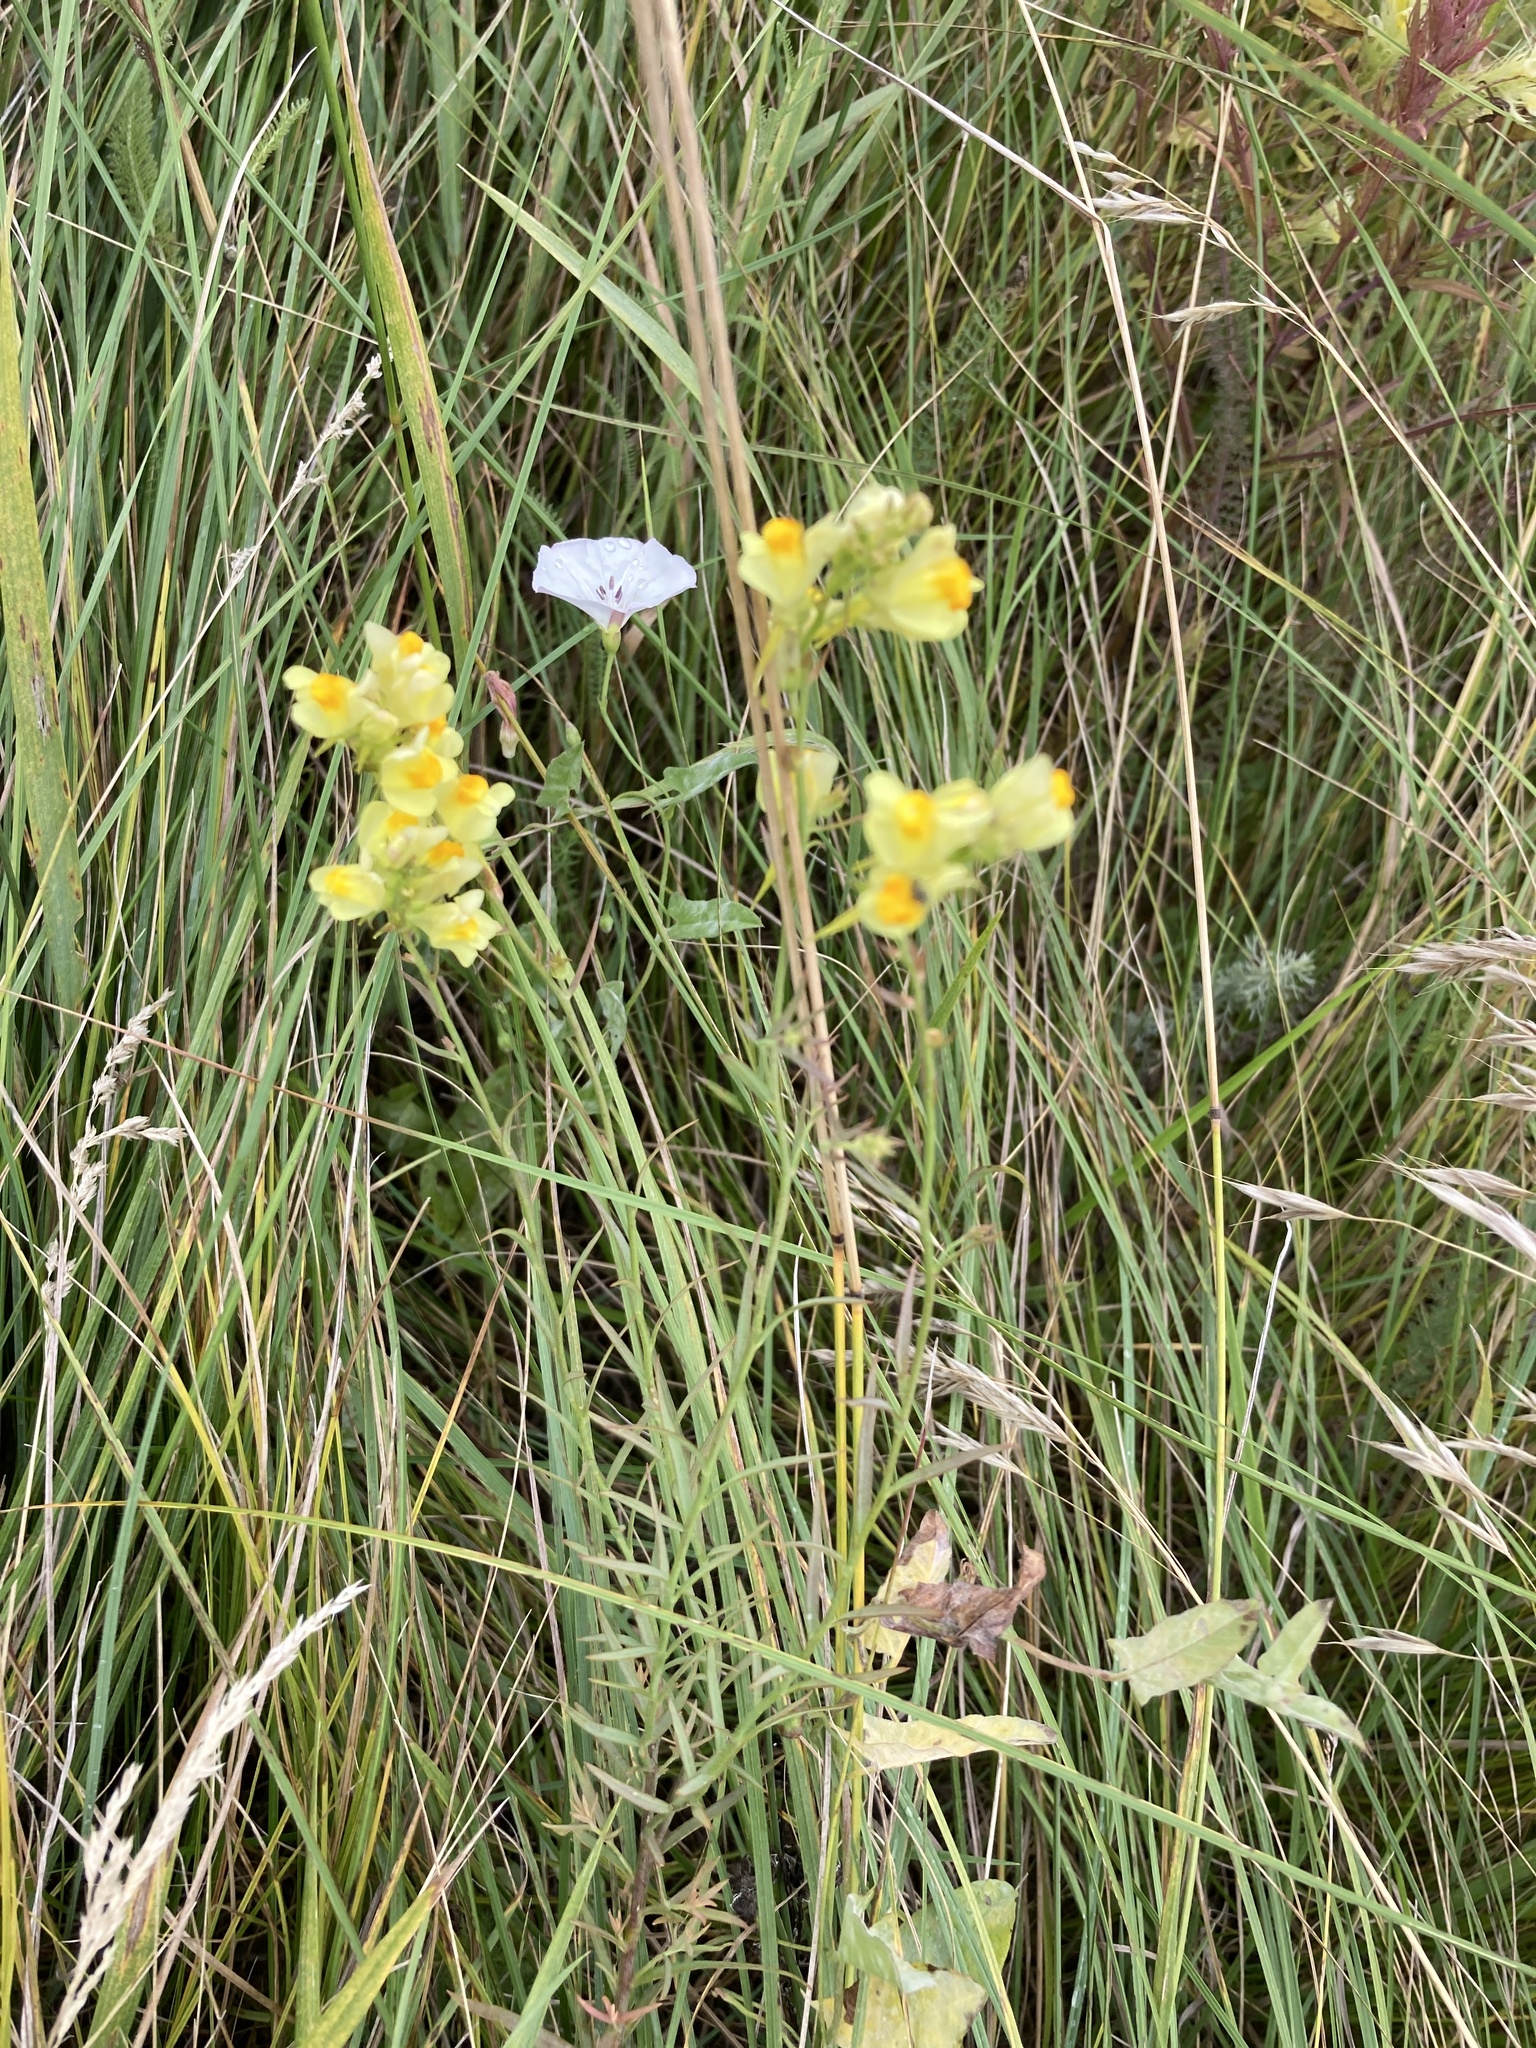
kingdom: Plantae
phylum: Tracheophyta
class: Magnoliopsida
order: Lamiales
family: Plantaginaceae
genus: Linaria
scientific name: Linaria vulgaris
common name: Butter and eggs
